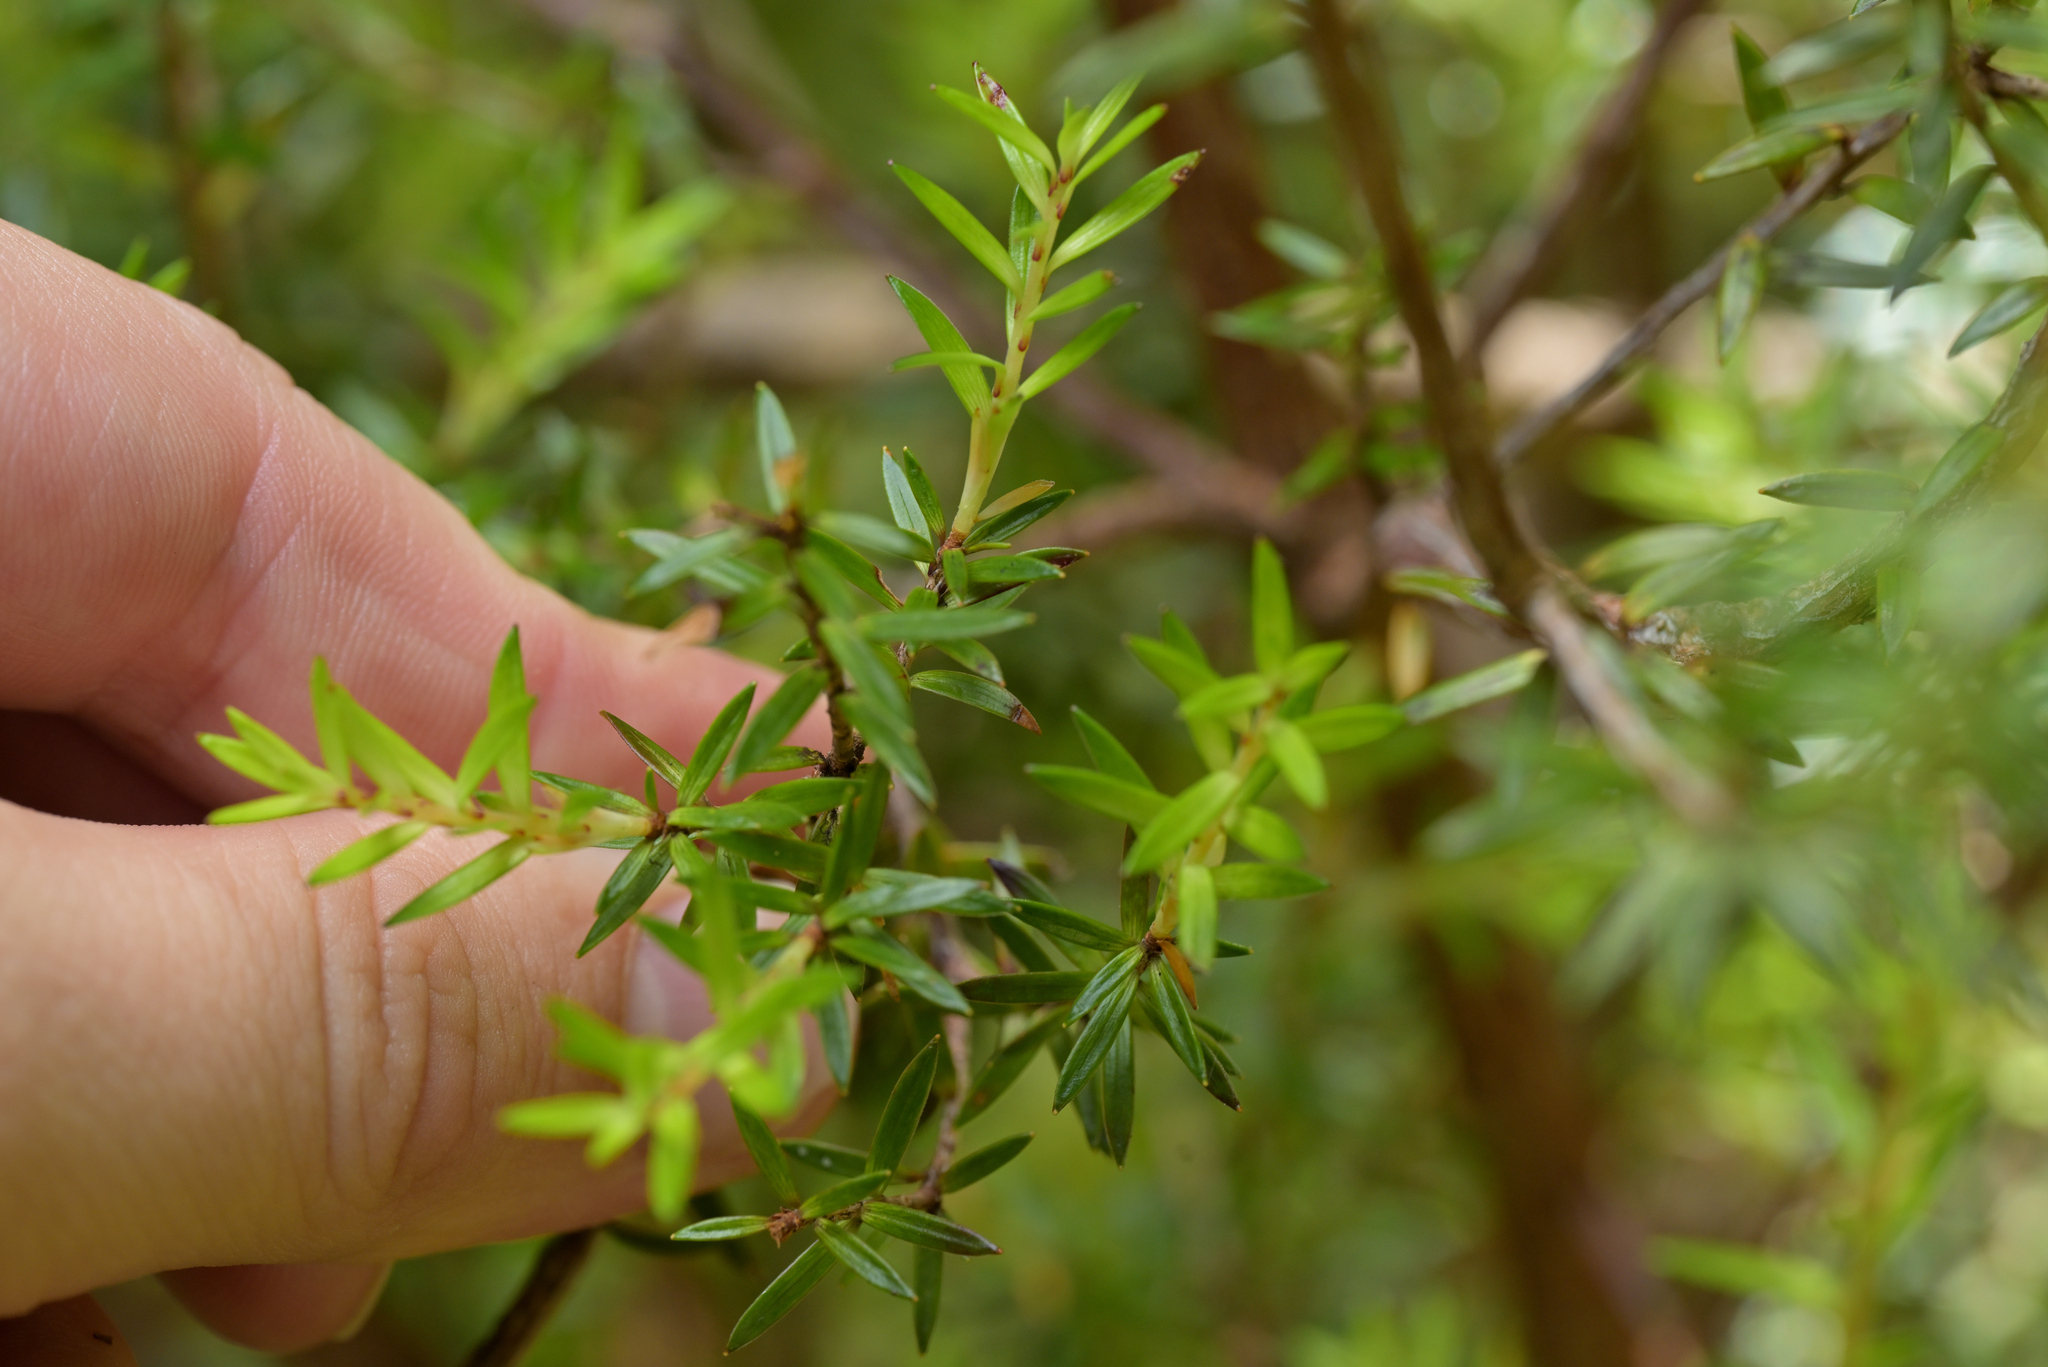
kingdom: Plantae
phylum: Tracheophyta
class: Magnoliopsida
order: Ericales
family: Ericaceae
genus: Archeria
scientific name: Archeria traversii
